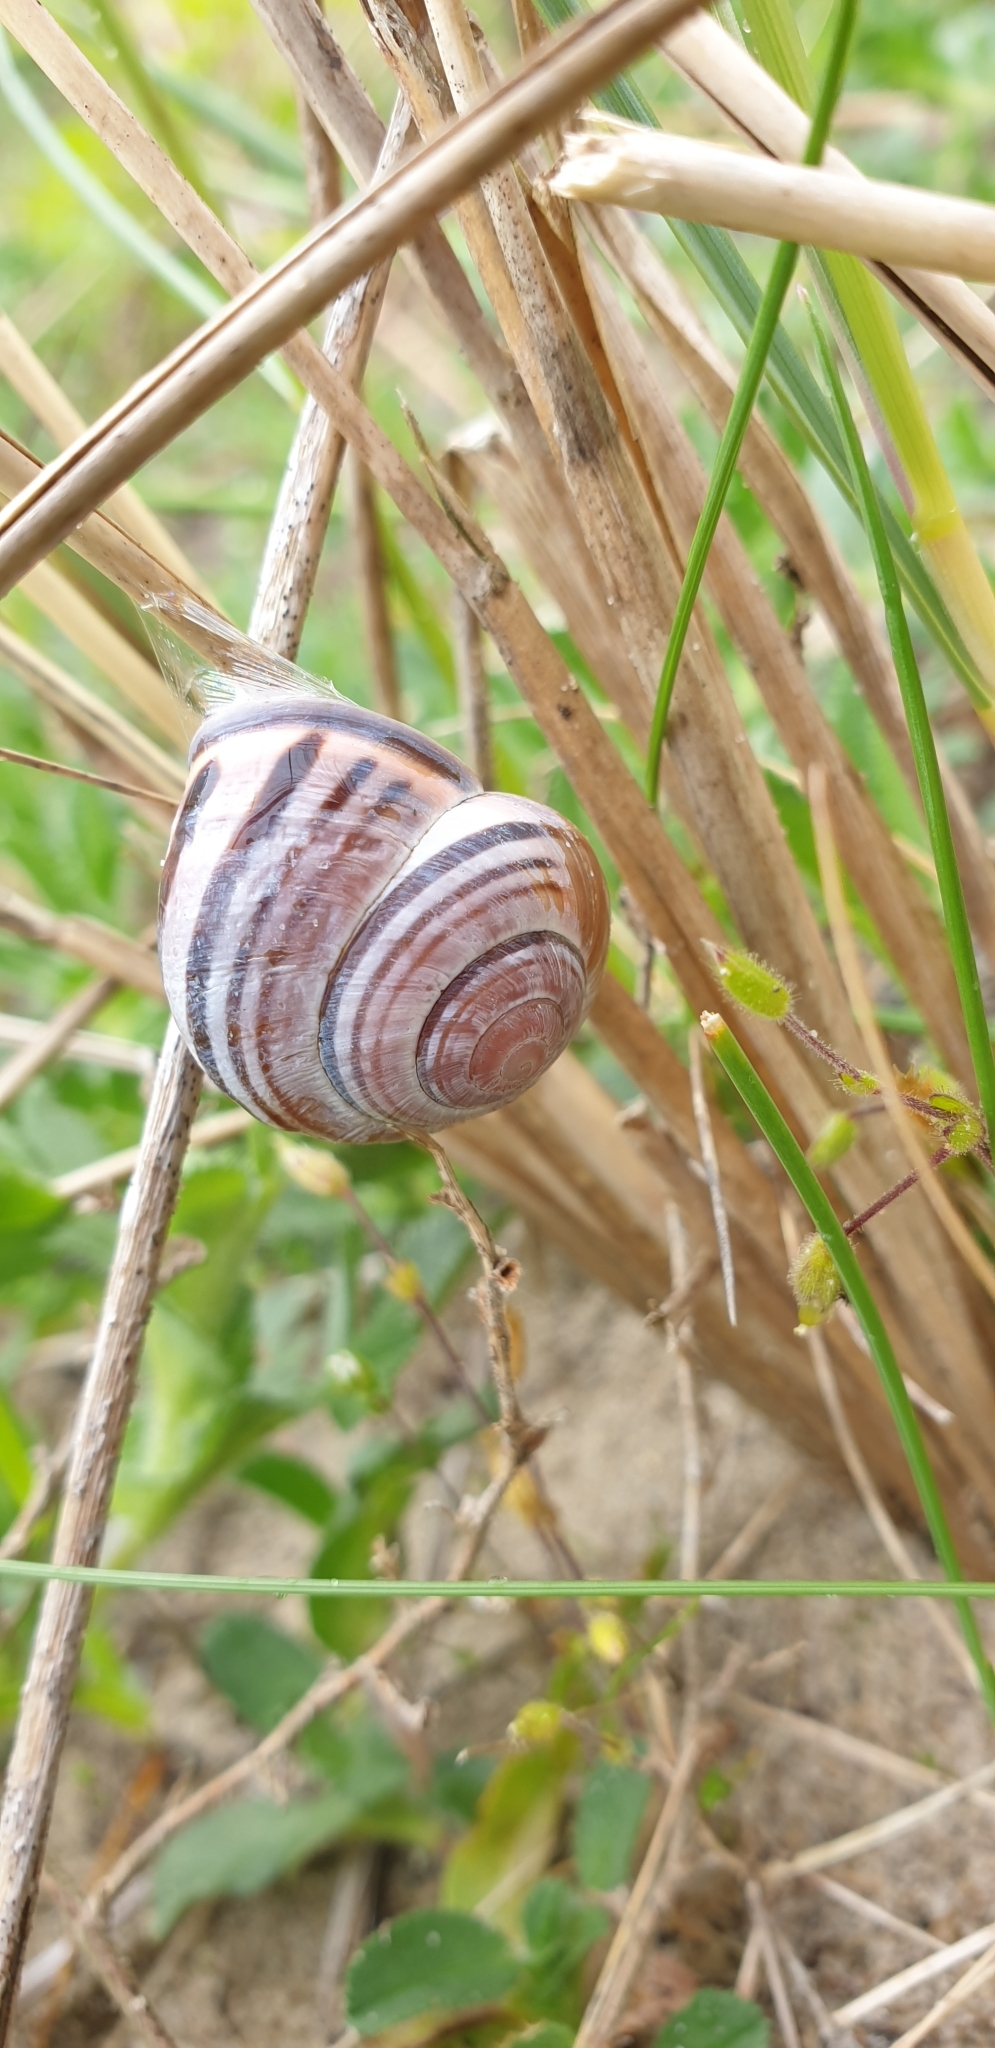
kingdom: Animalia
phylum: Mollusca
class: Gastropoda
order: Stylommatophora
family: Helicidae
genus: Cepaea
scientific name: Cepaea nemoralis
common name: Grovesnail
